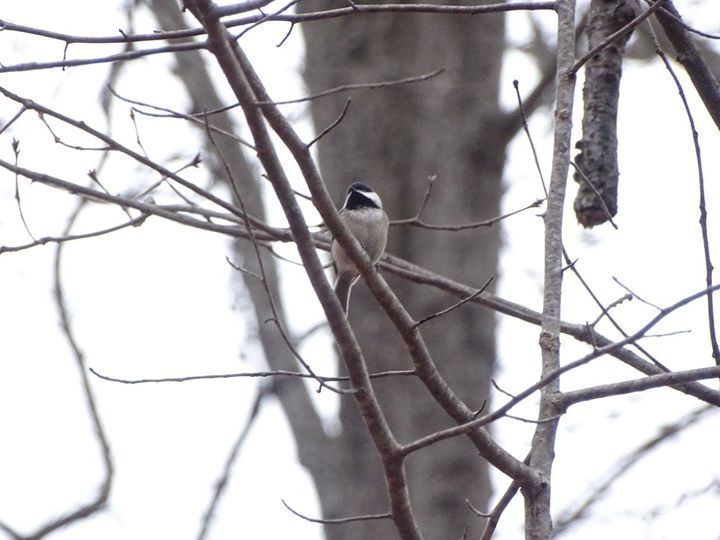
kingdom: Animalia
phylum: Chordata
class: Aves
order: Passeriformes
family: Paridae
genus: Poecile
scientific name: Poecile carolinensis
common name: Carolina chickadee
